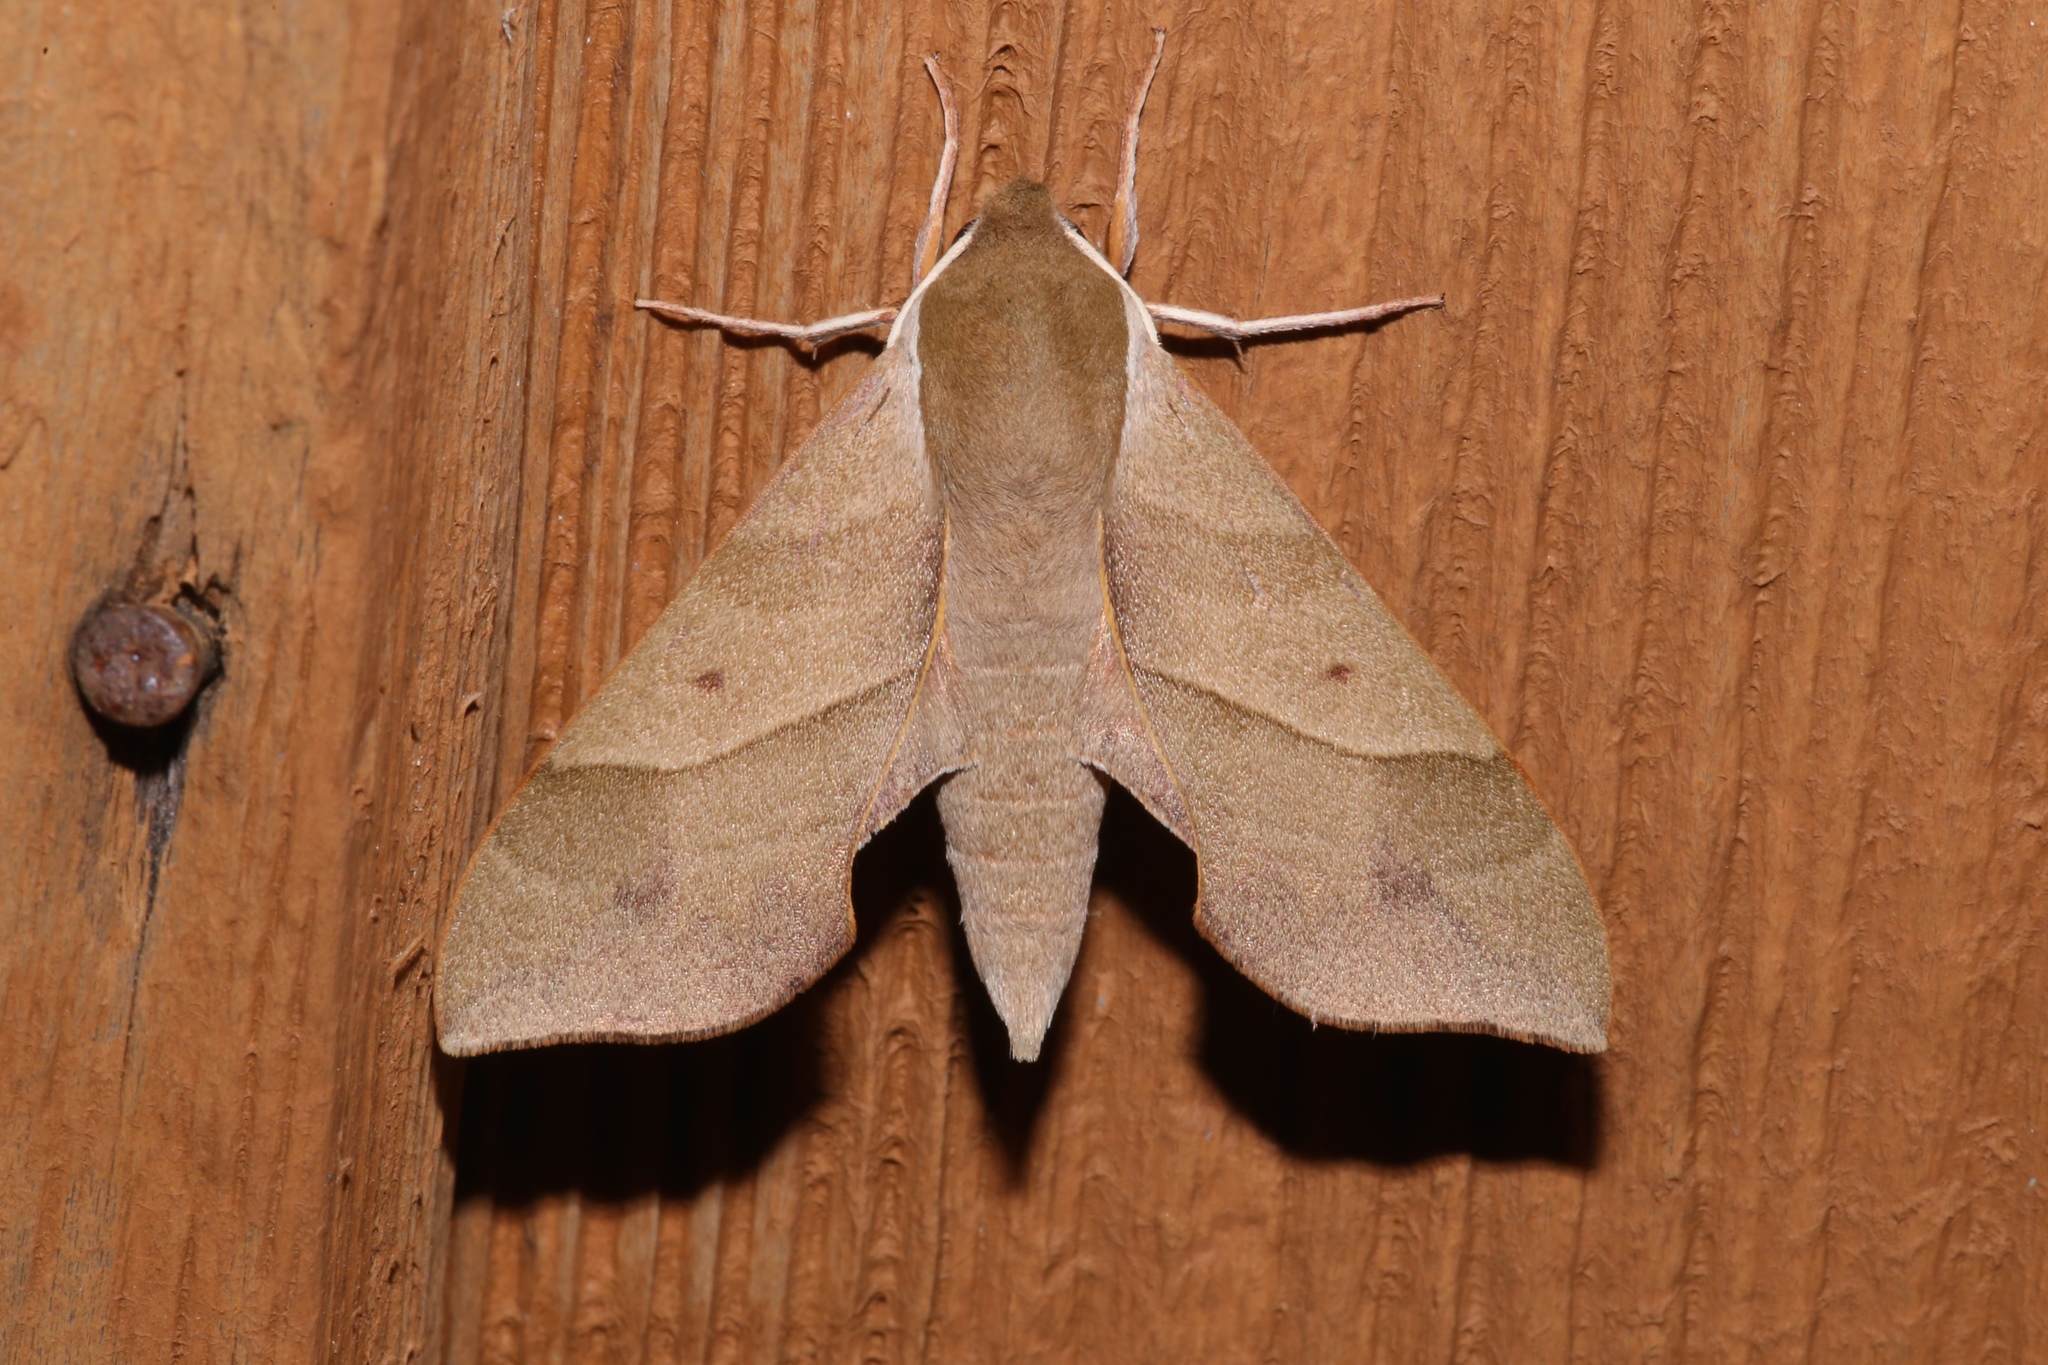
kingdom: Animalia
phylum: Arthropoda
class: Insecta
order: Lepidoptera
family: Sphingidae
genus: Darapsa
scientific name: Darapsa myron
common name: Hog sphinx
